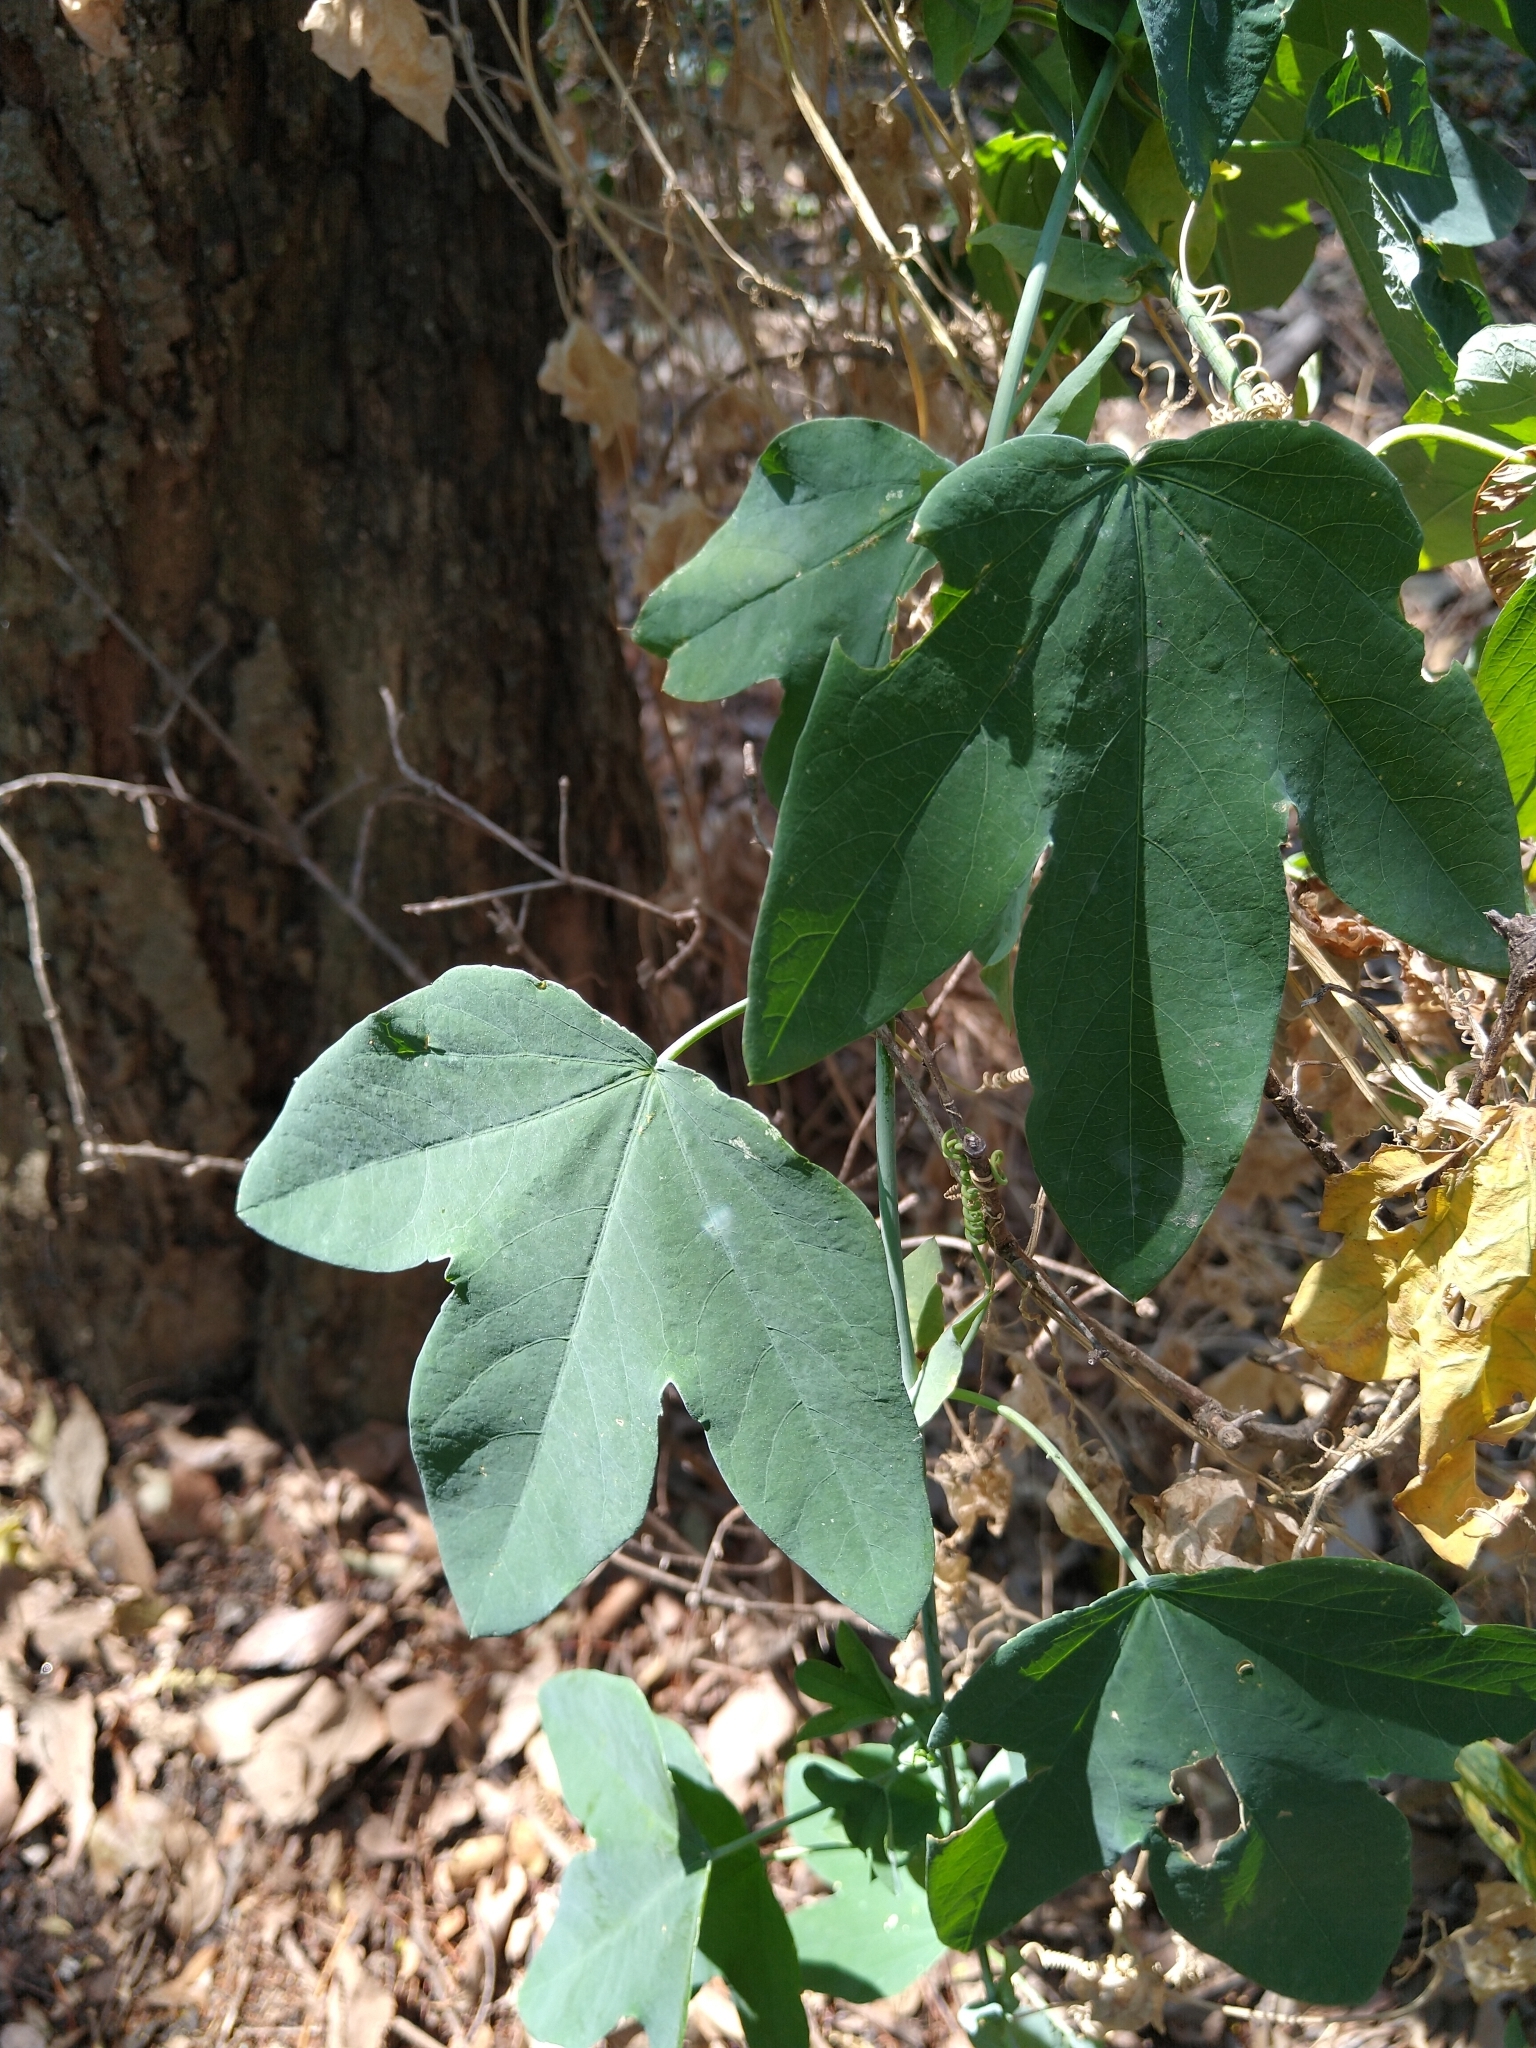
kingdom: Plantae
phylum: Tracheophyta
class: Magnoliopsida
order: Malpighiales
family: Passifloraceae
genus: Passiflora
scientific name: Passiflora subpeltata
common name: White passionflower
